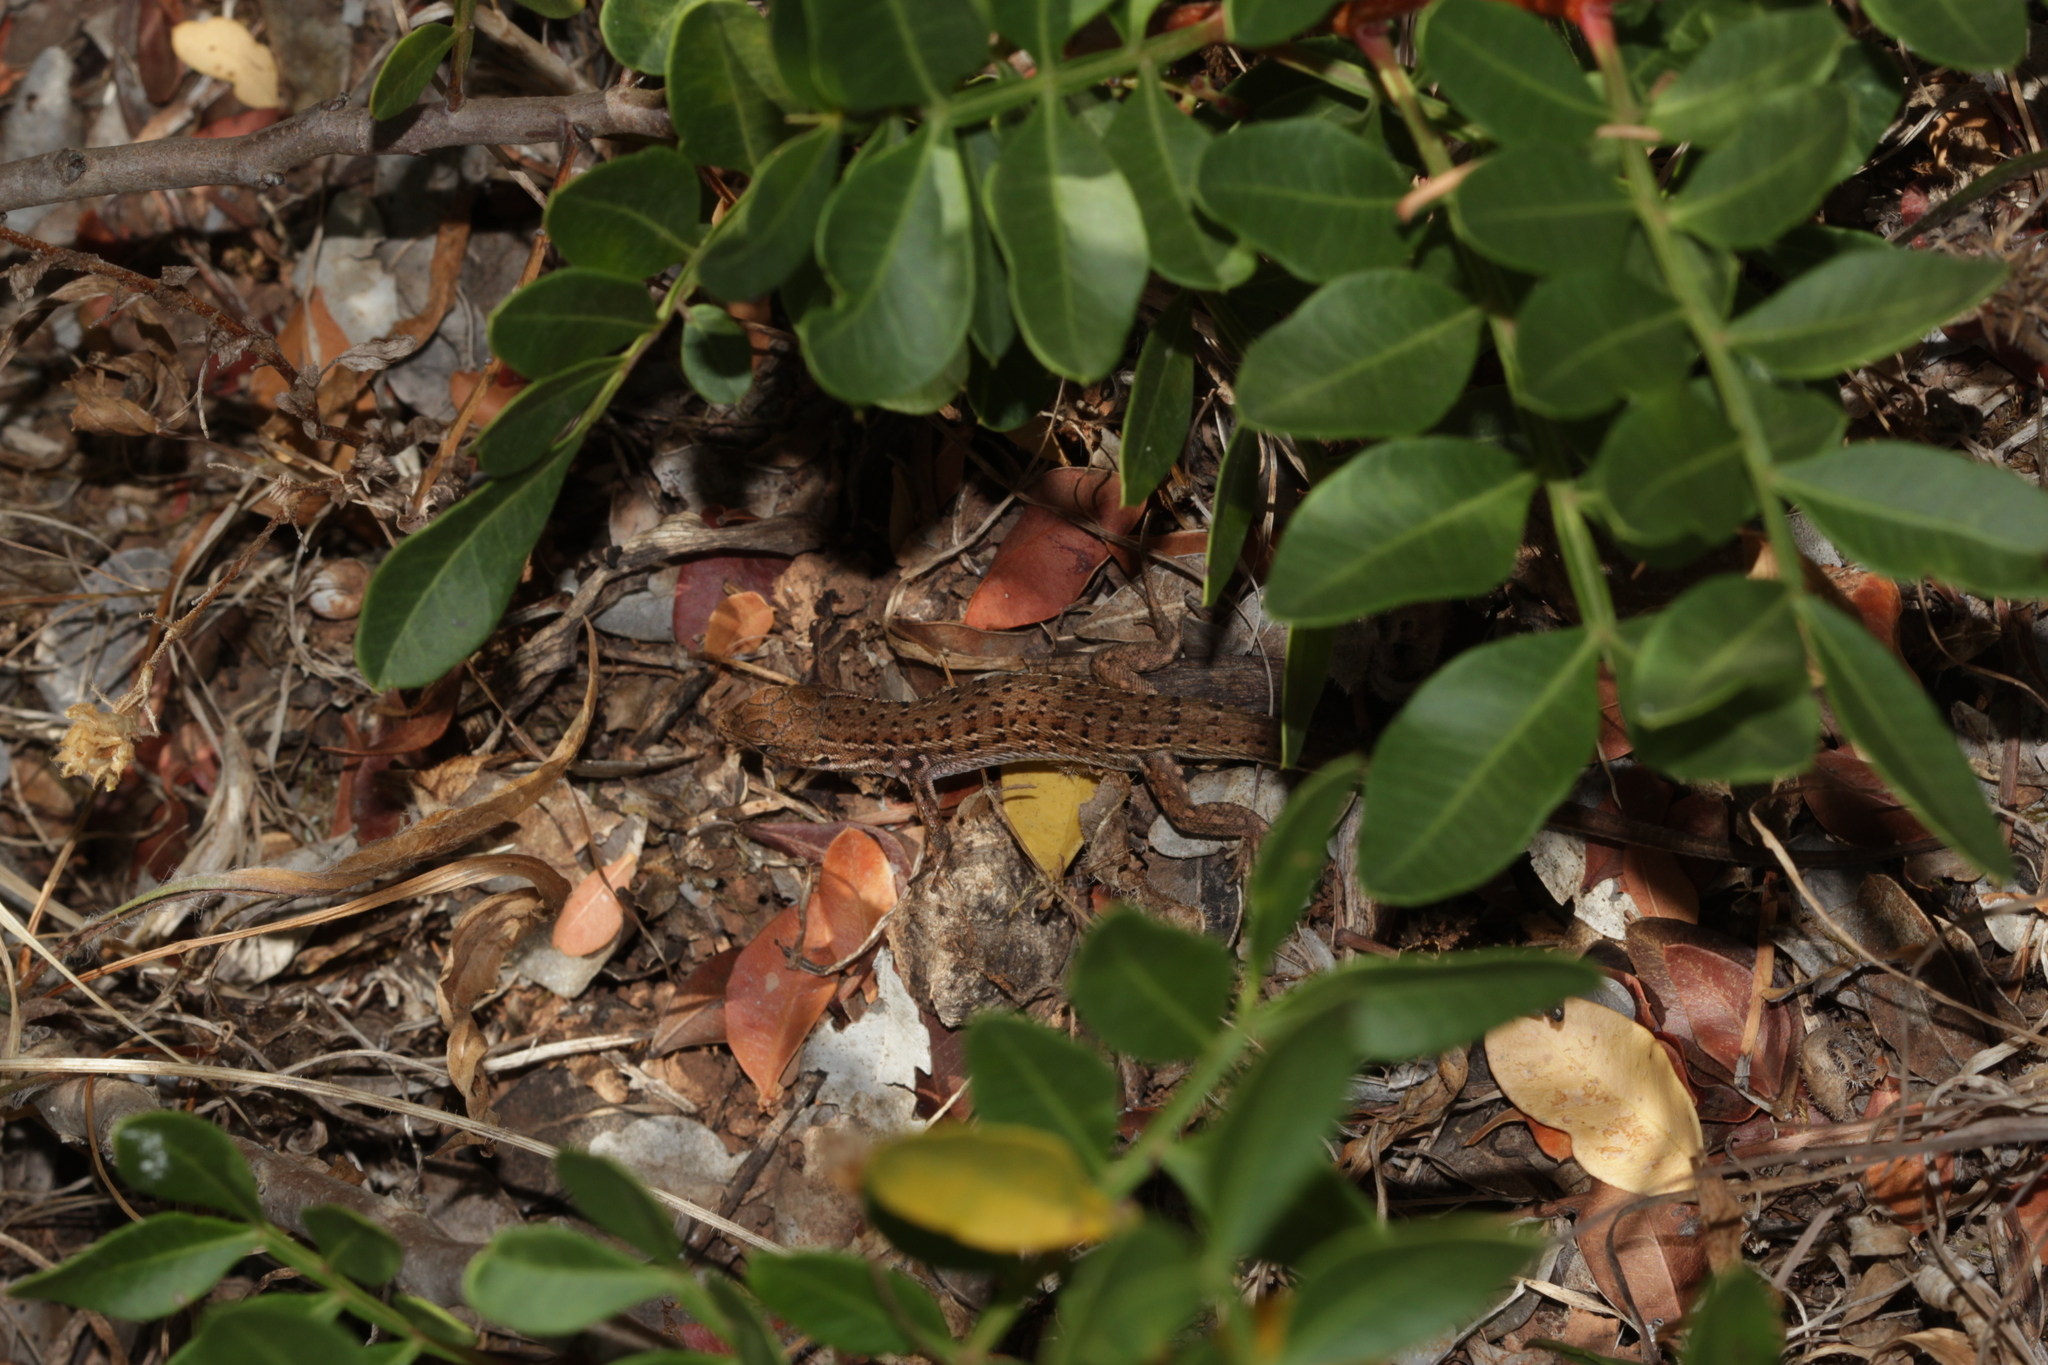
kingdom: Animalia
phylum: Chordata
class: Squamata
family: Lacertidae
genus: Psammodromus
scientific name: Psammodromus occidentalis
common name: Western psammodromus
